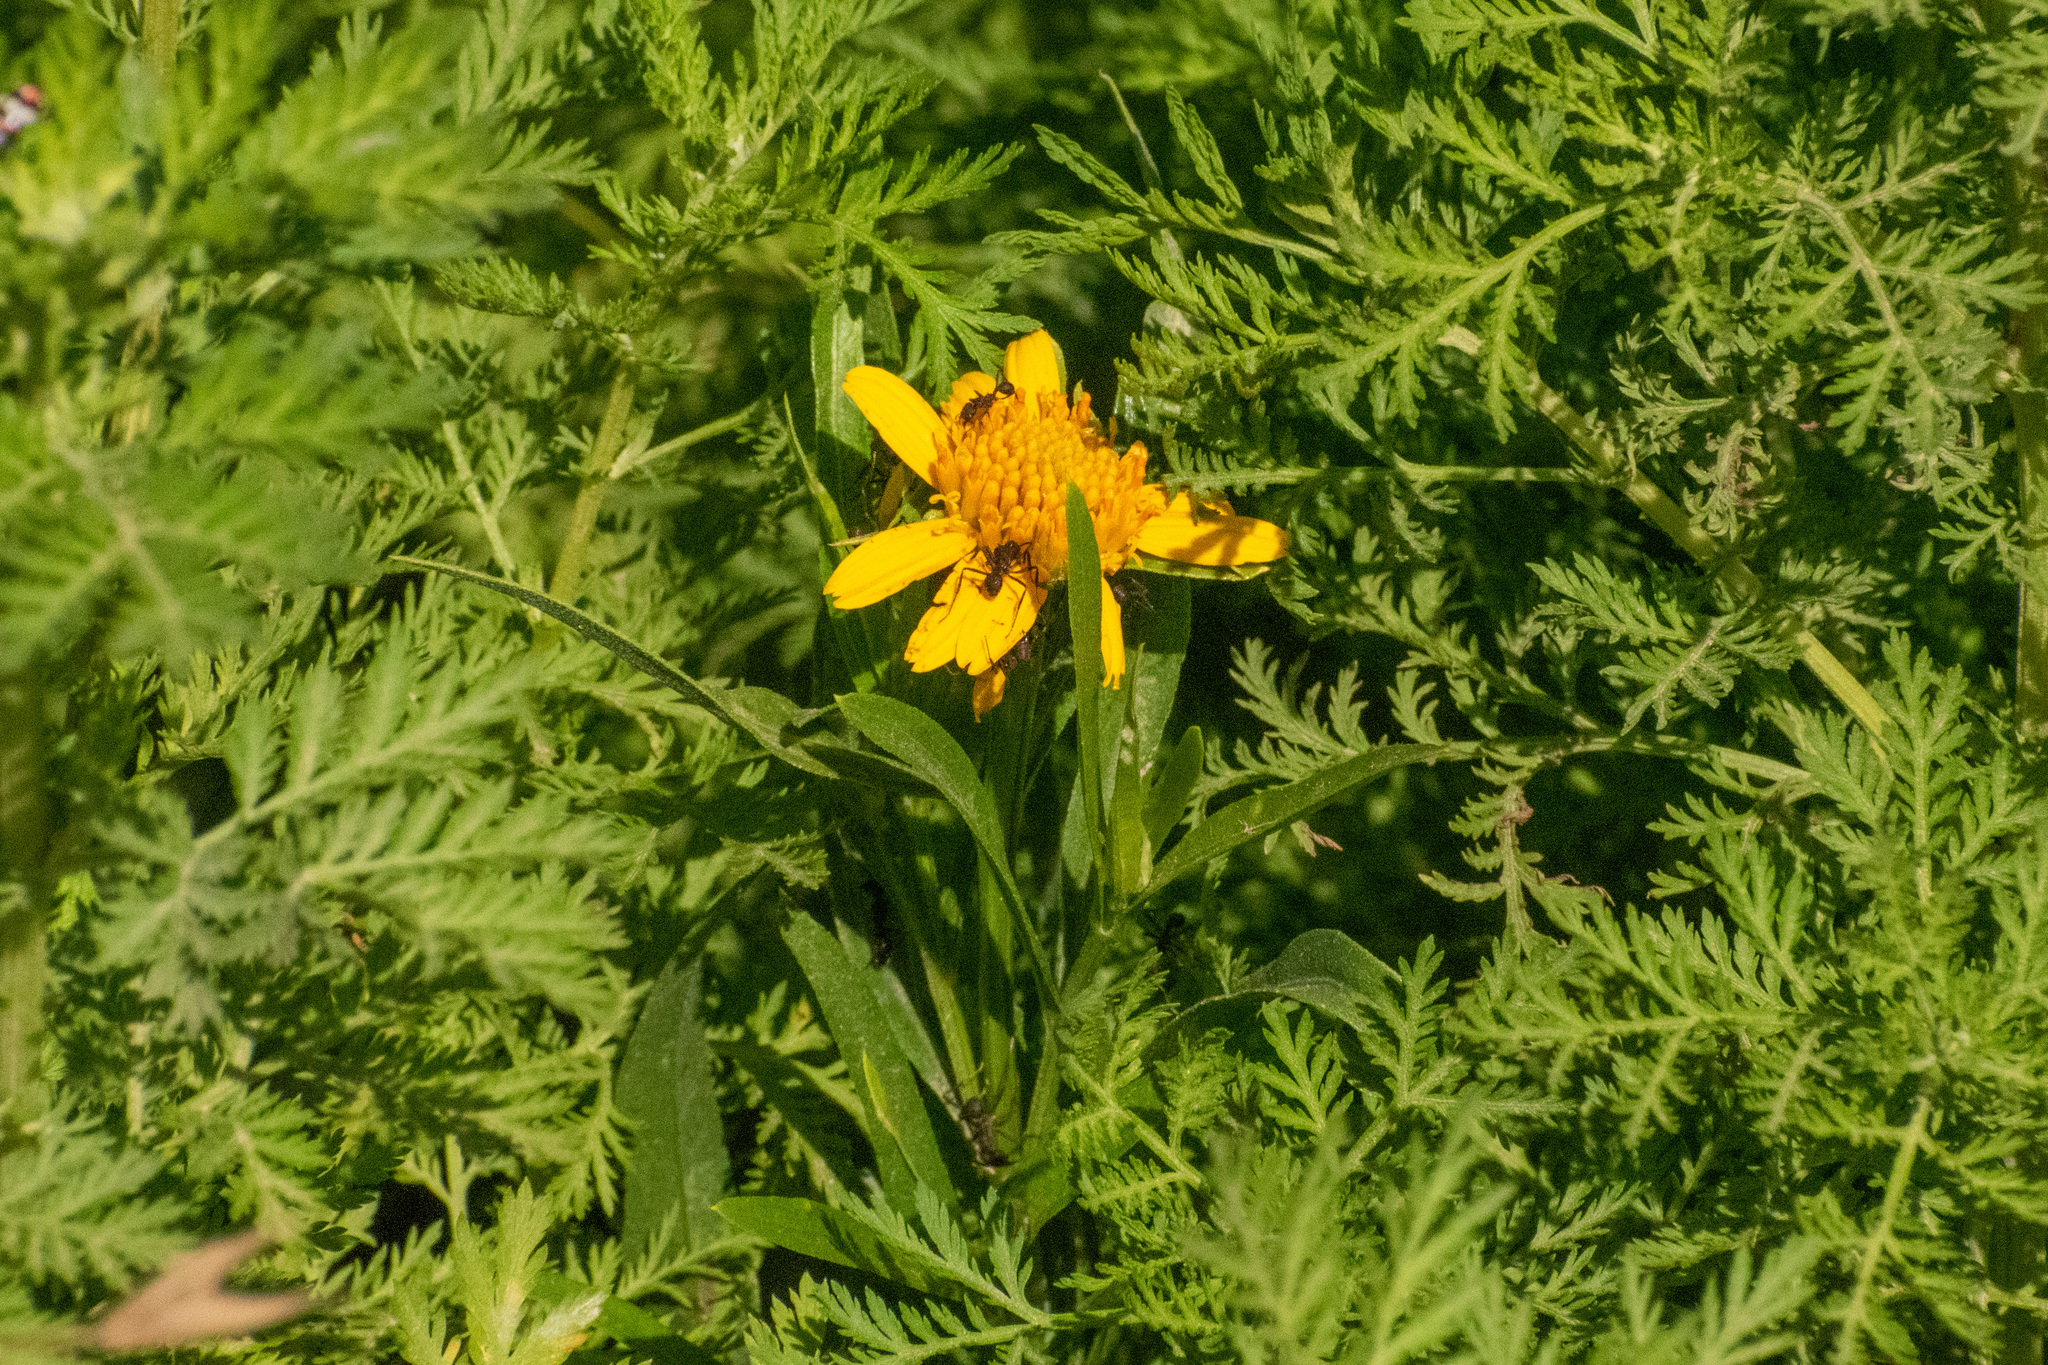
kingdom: Plantae
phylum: Tracheophyta
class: Magnoliopsida
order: Asterales
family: Asteraceae
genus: Pascalia
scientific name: Pascalia glauca
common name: Beach creeping oxeye
